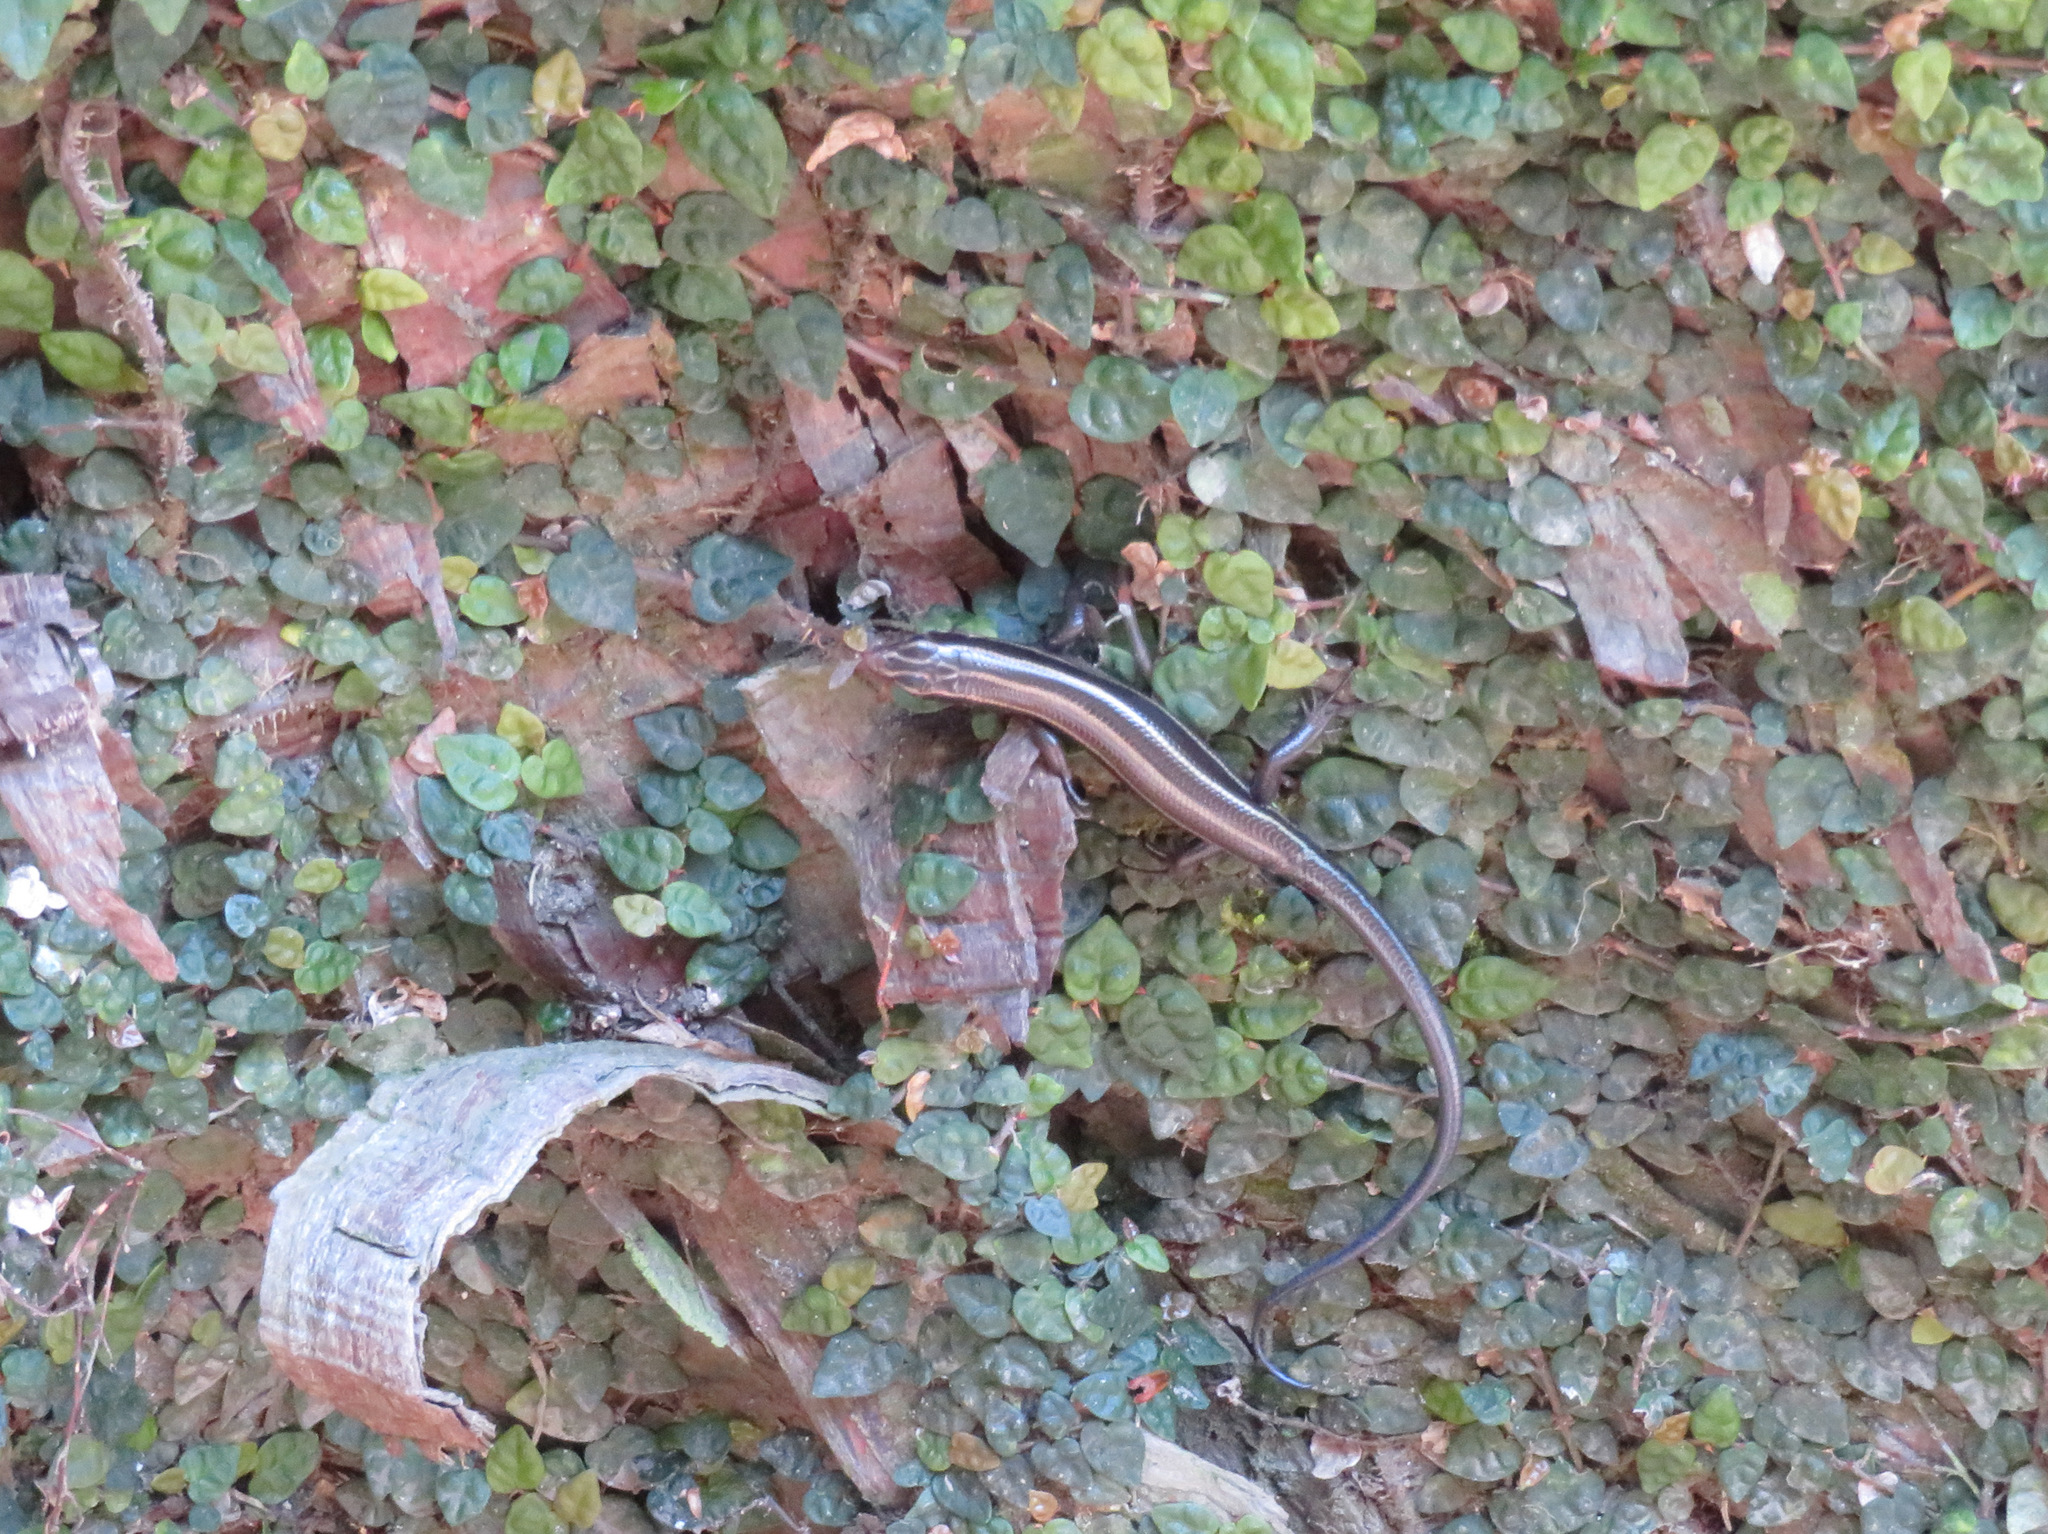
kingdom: Animalia
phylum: Chordata
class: Squamata
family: Scincidae
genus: Plestiodon
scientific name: Plestiodon japonicus
